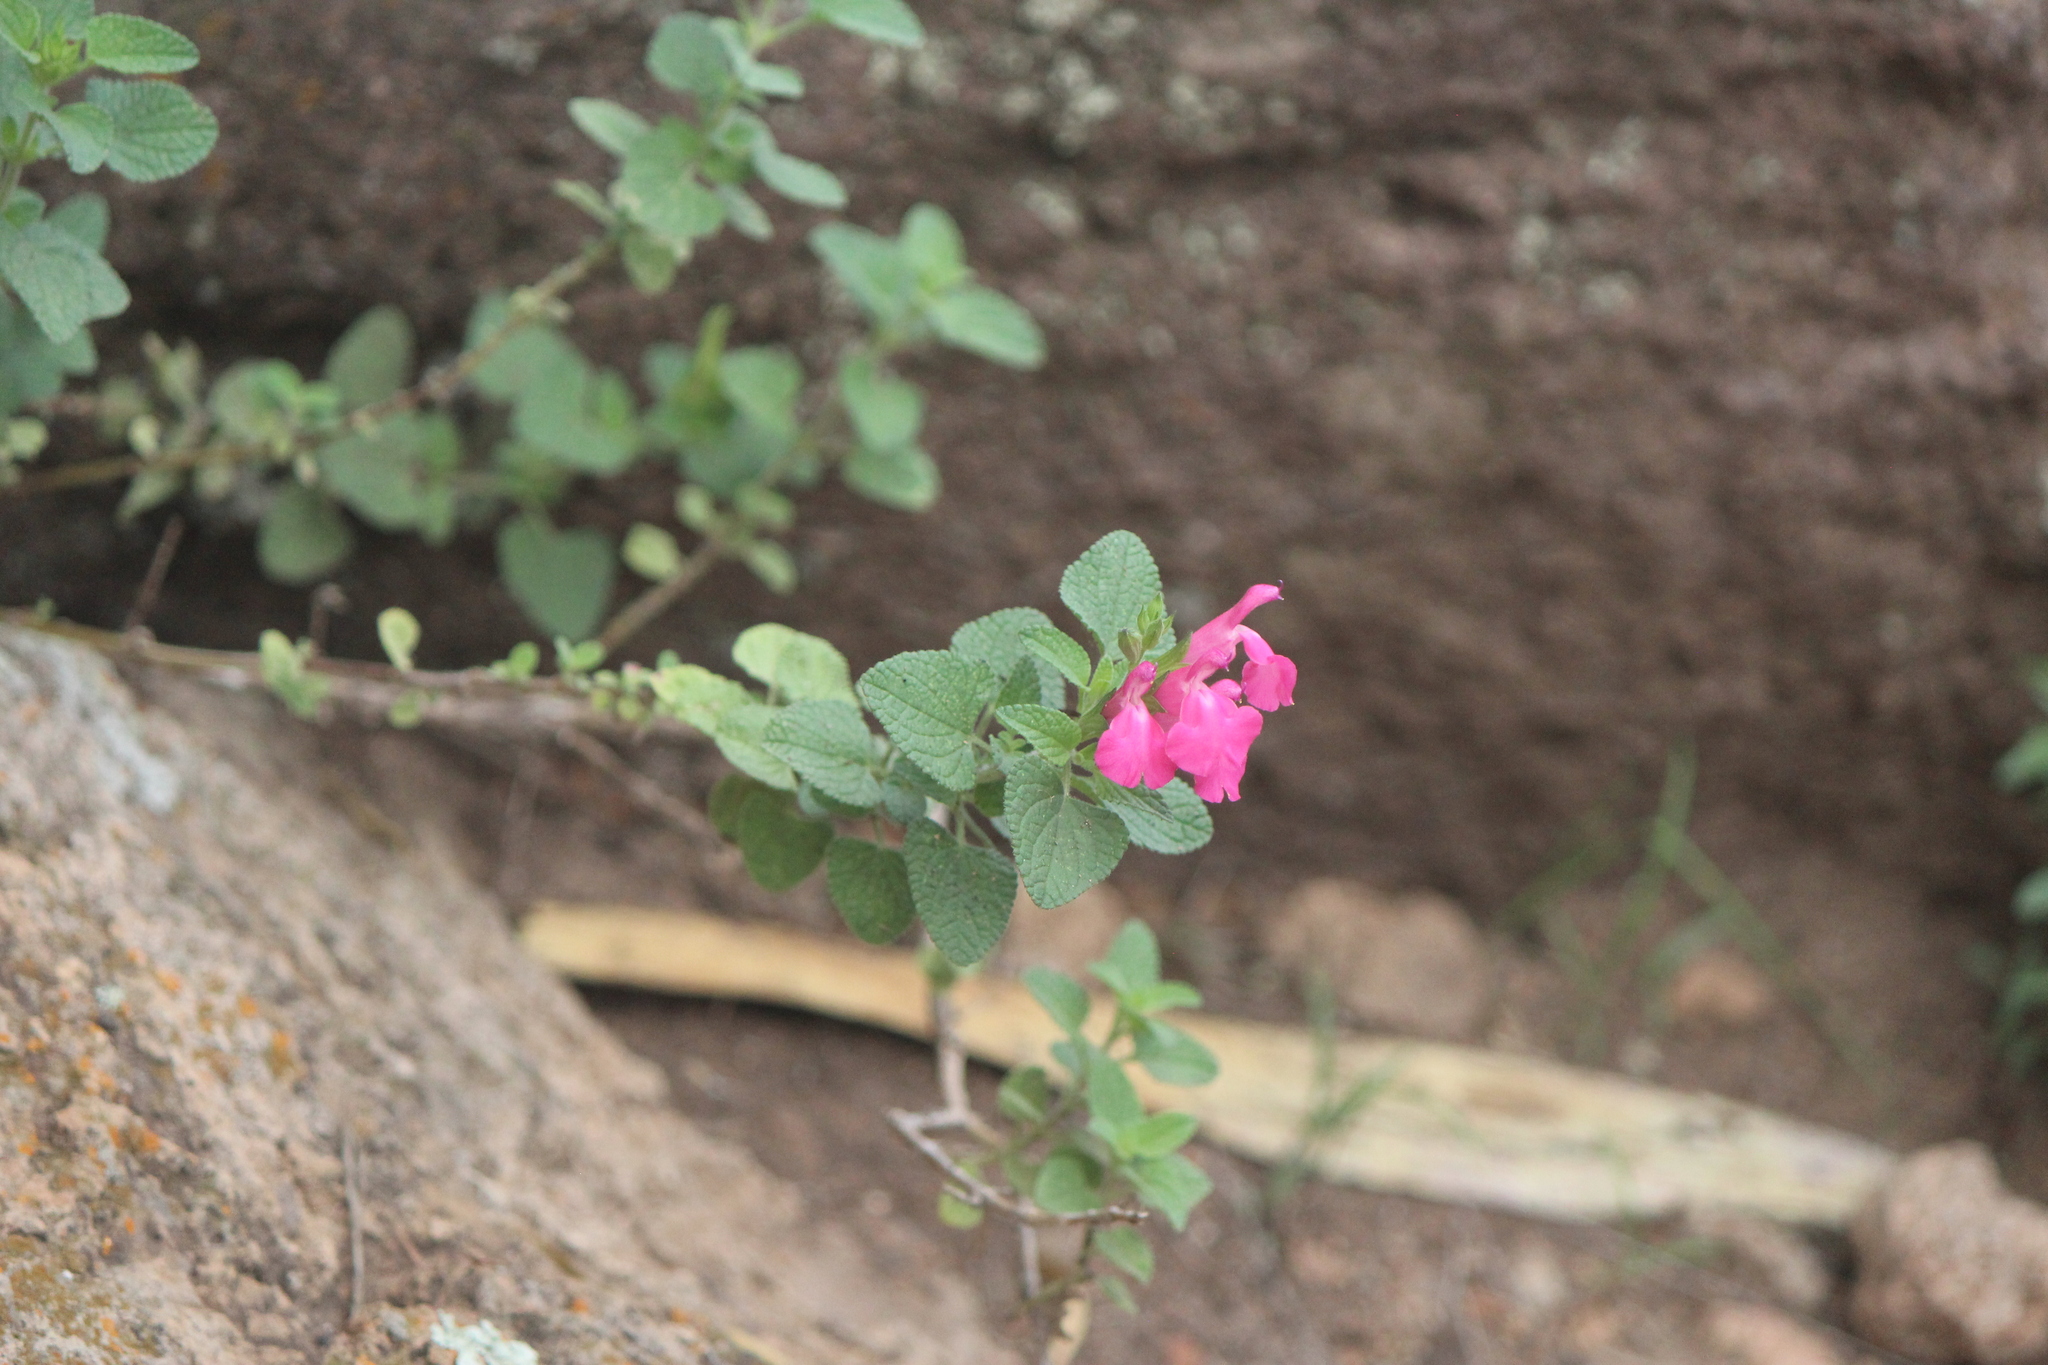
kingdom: Plantae
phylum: Tracheophyta
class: Magnoliopsida
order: Lamiales
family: Lamiaceae
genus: Salvia
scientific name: Salvia microphylla
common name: Baby sage
